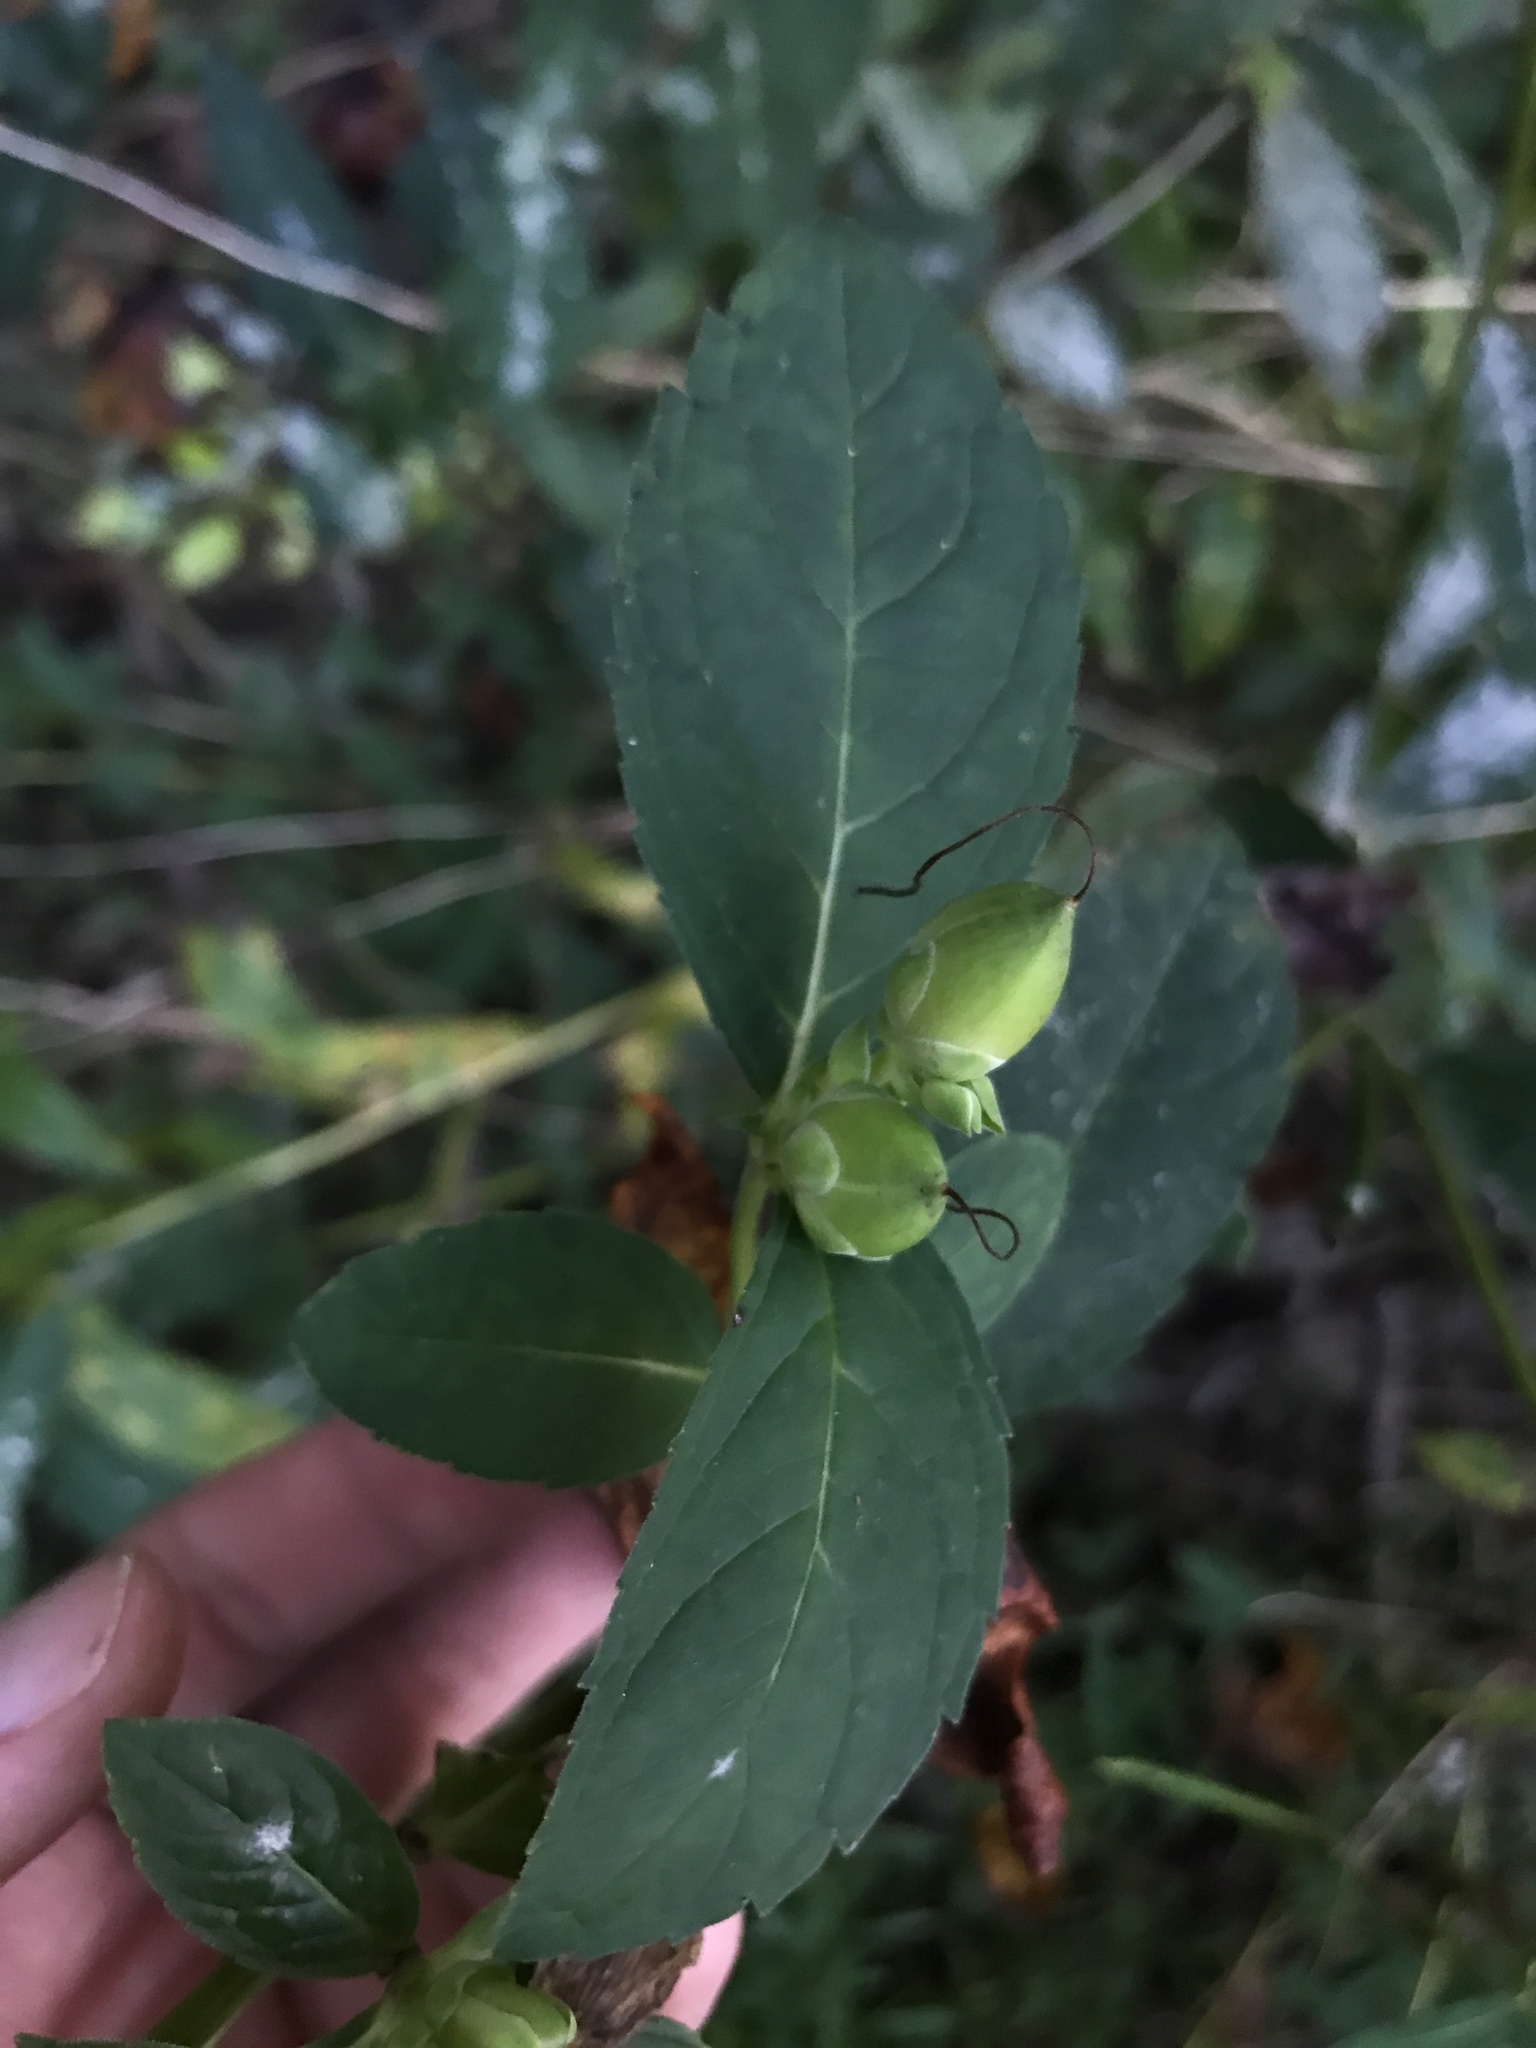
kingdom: Plantae
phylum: Tracheophyta
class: Magnoliopsida
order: Lamiales
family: Plantaginaceae
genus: Chelone
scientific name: Chelone glabra
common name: Snakehead
